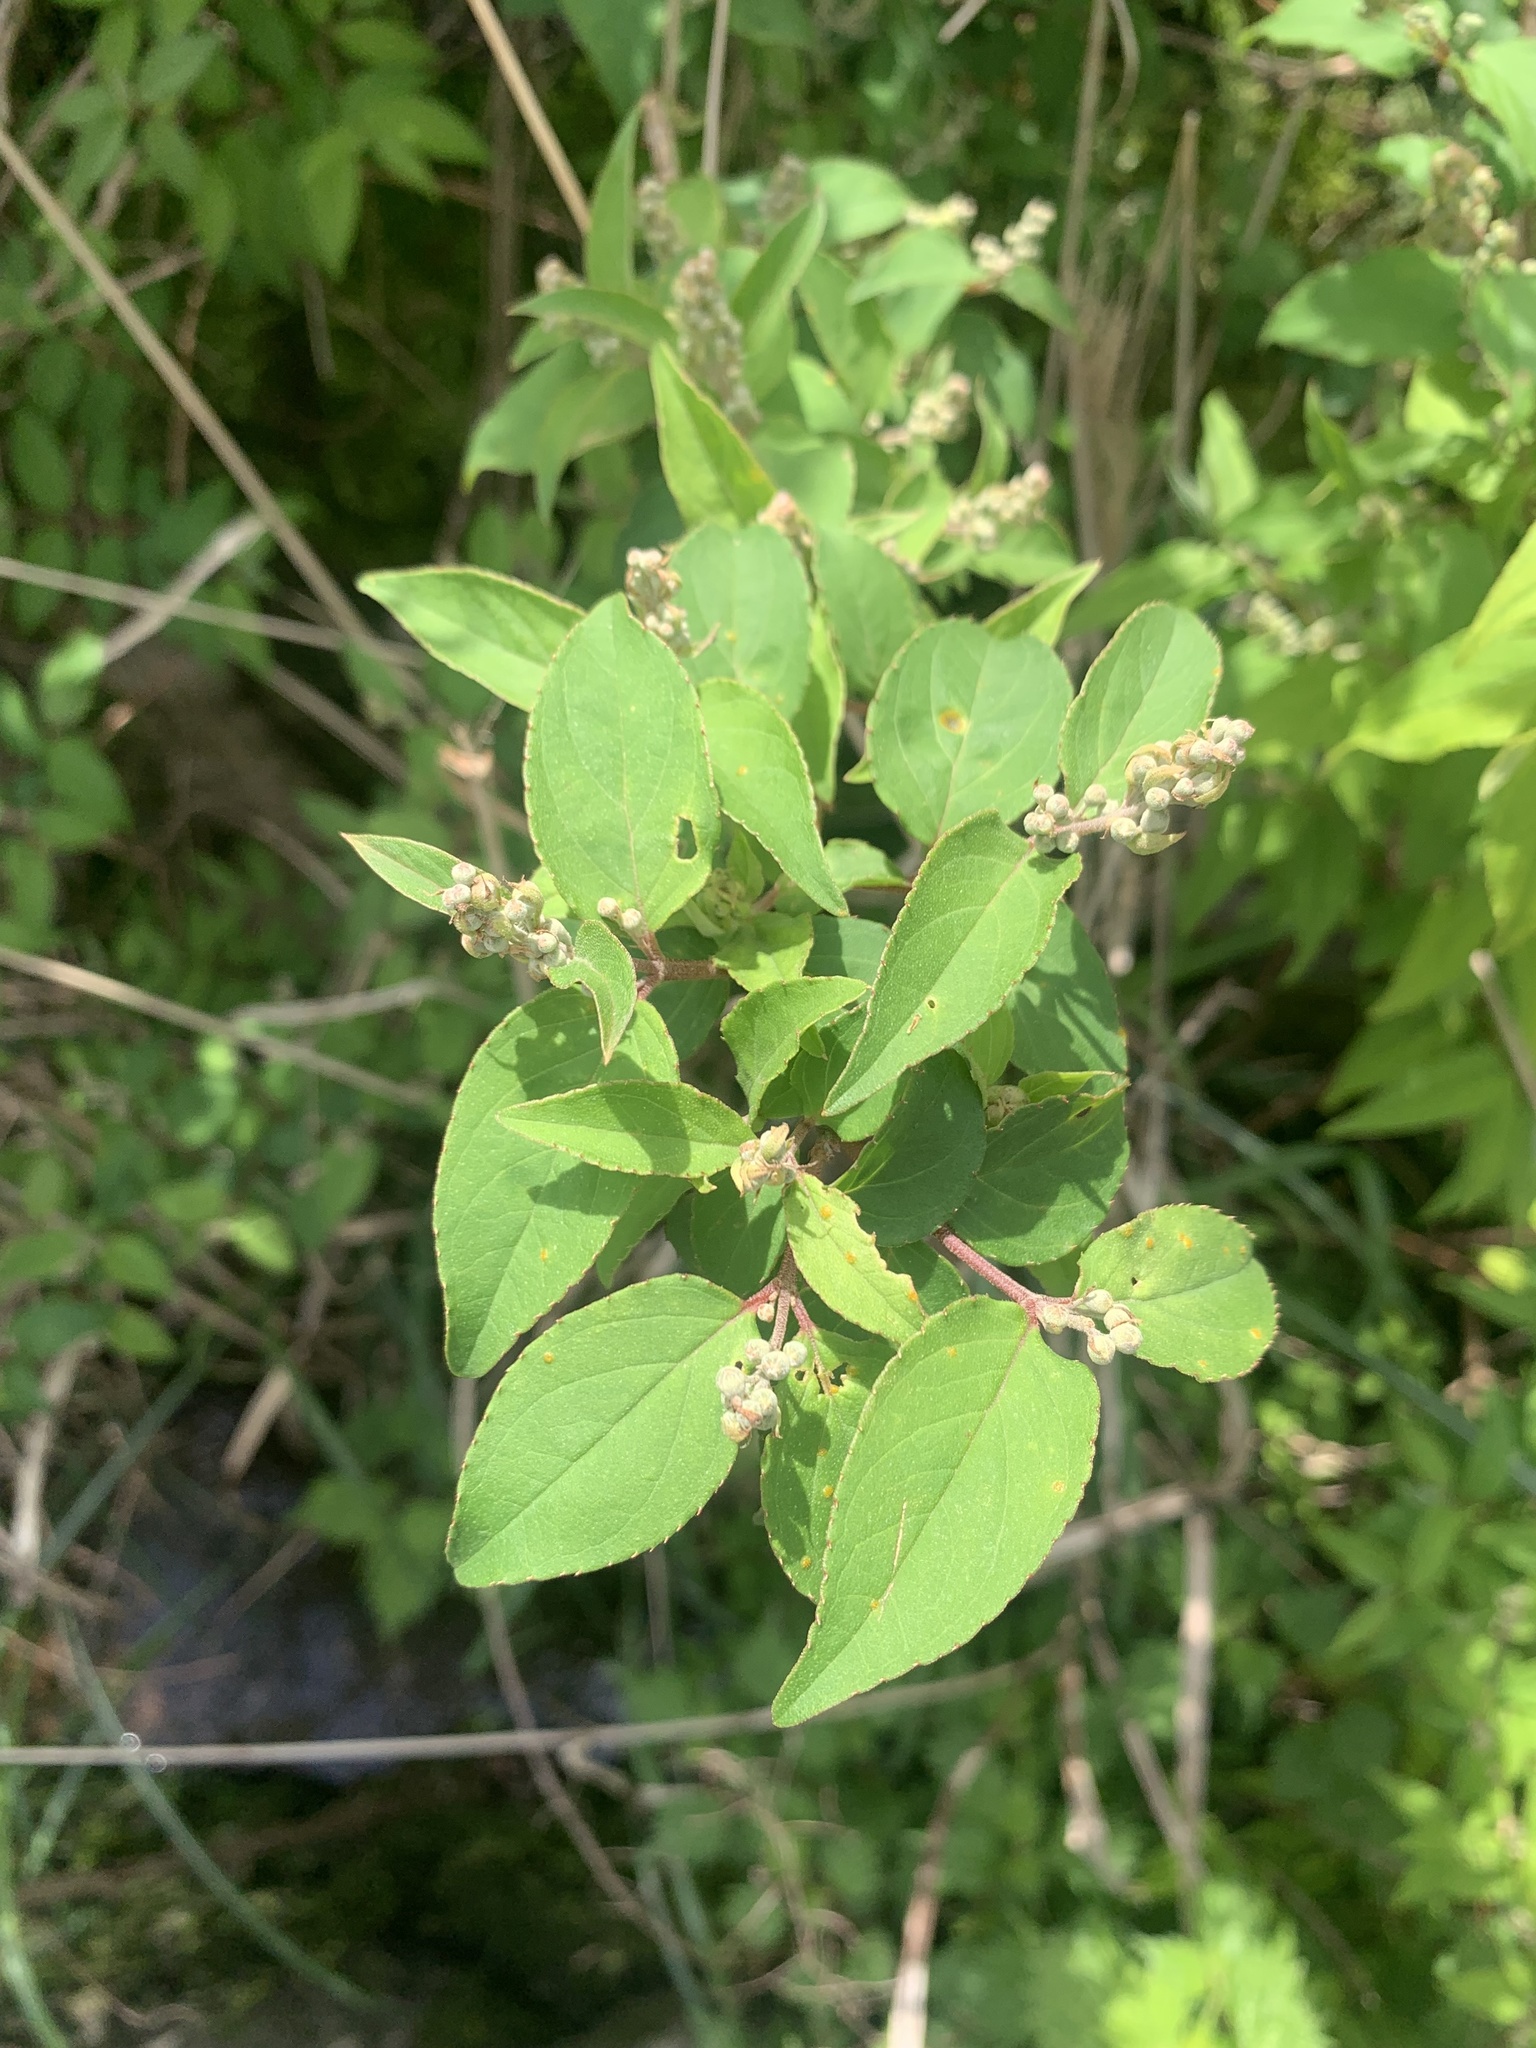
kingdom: Plantae
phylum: Tracheophyta
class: Magnoliopsida
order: Cornales
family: Hydrangeaceae
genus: Deutzia
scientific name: Deutzia crenata
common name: Deutzia
